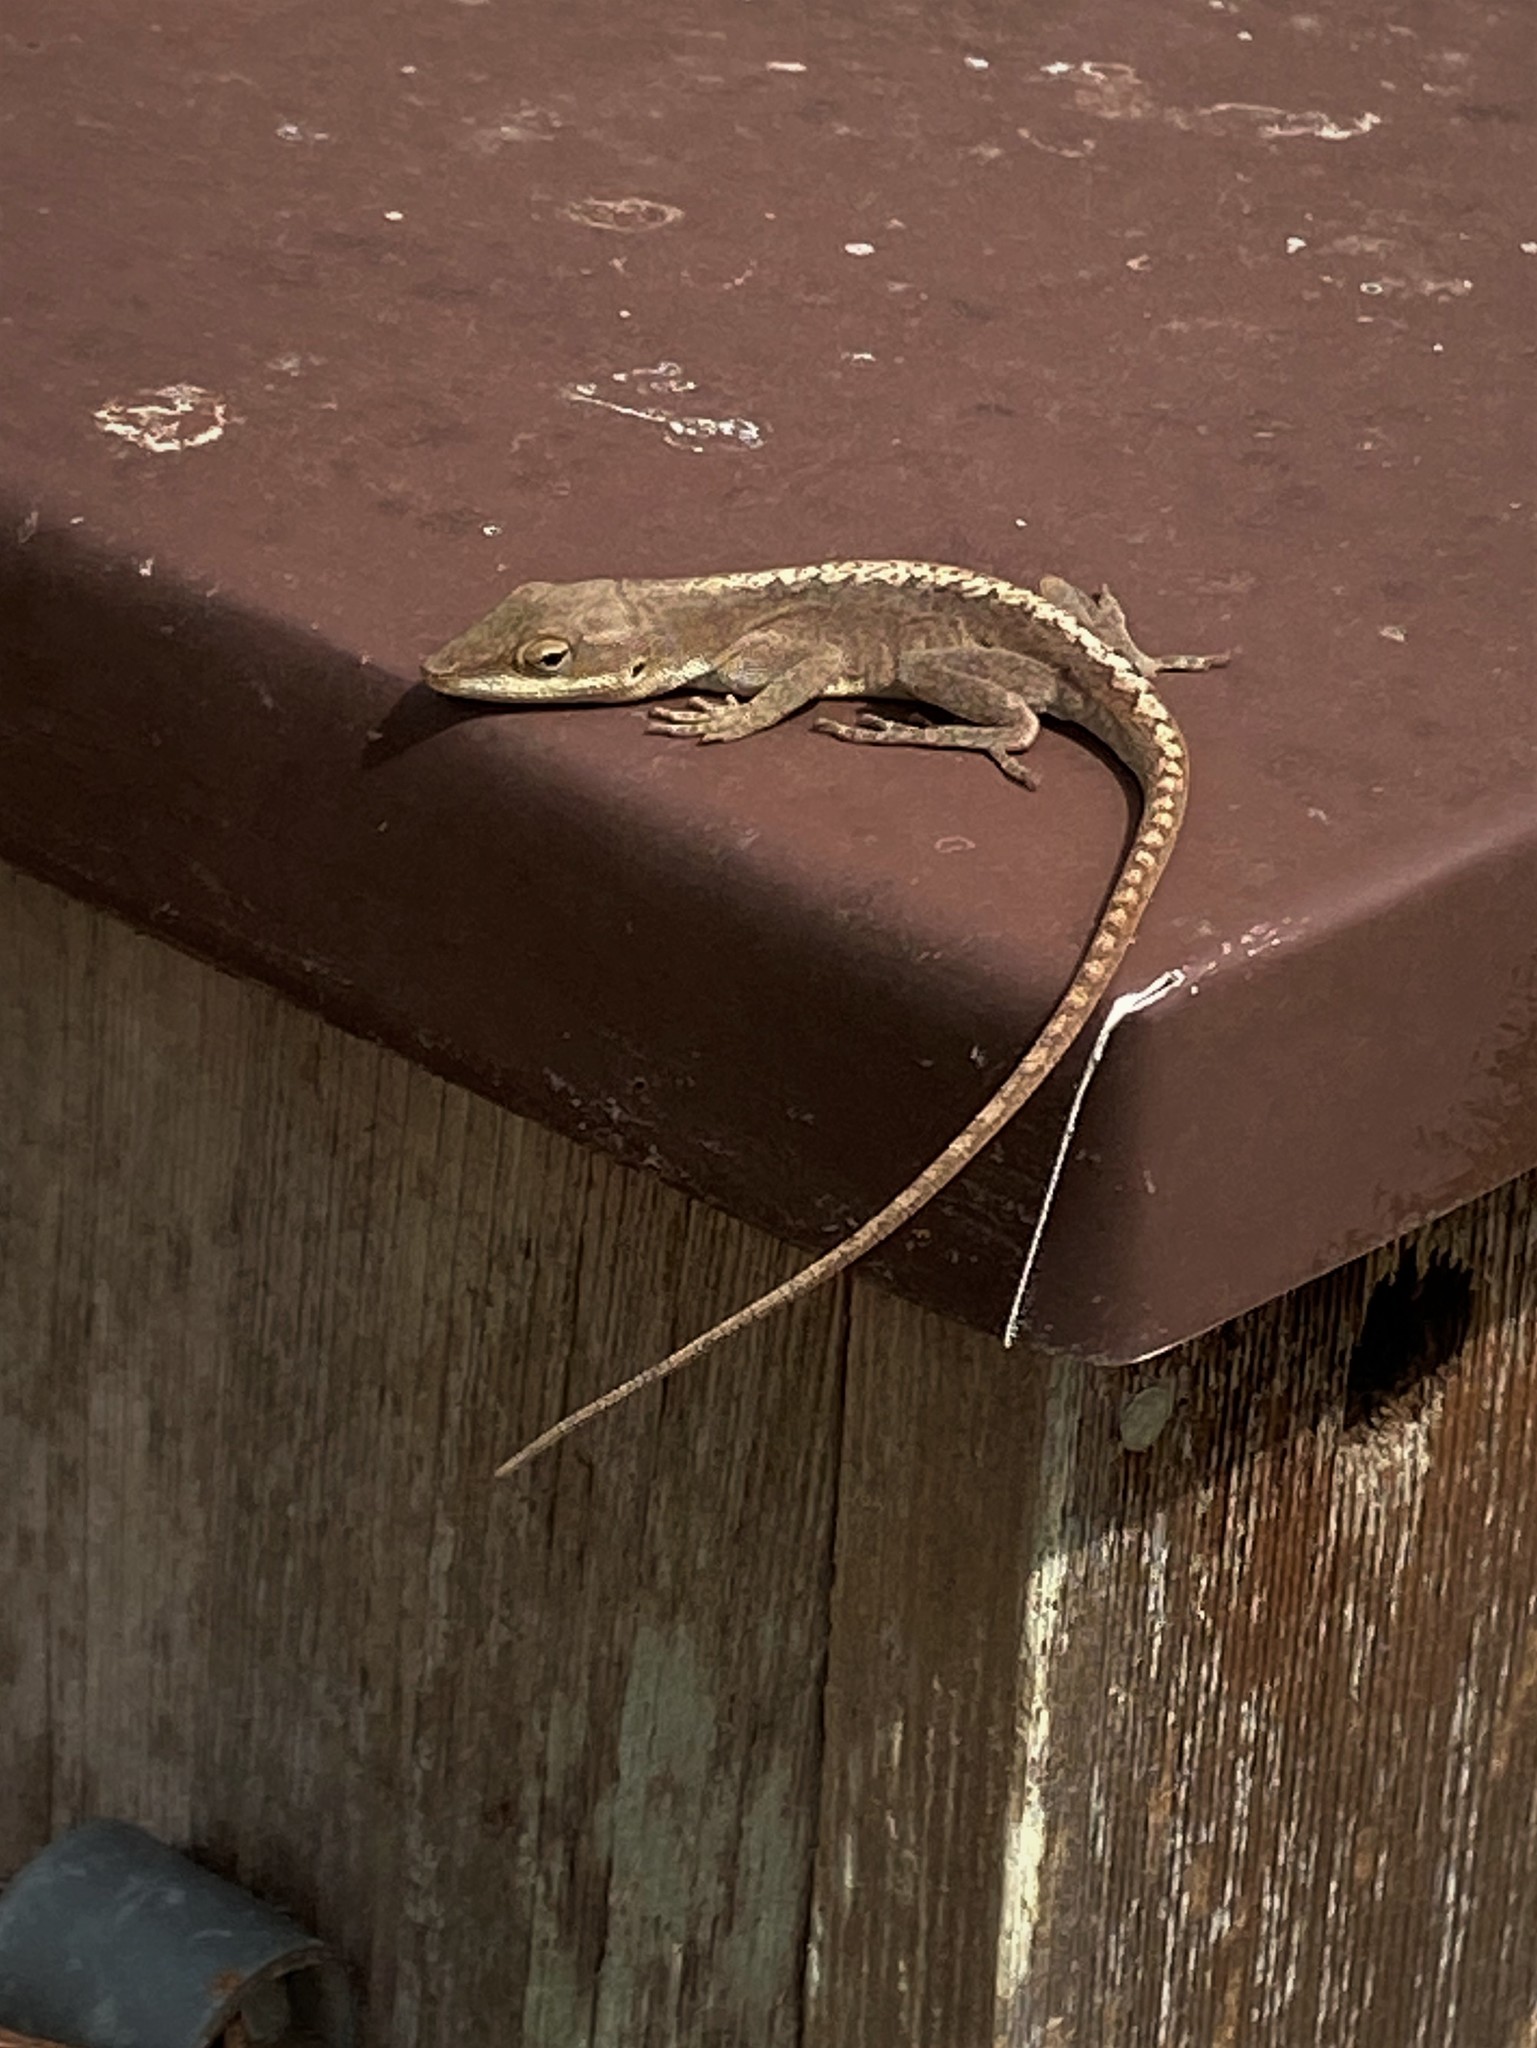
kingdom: Animalia
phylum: Chordata
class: Squamata
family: Dactyloidae
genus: Anolis
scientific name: Anolis carolinensis
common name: Green anole
